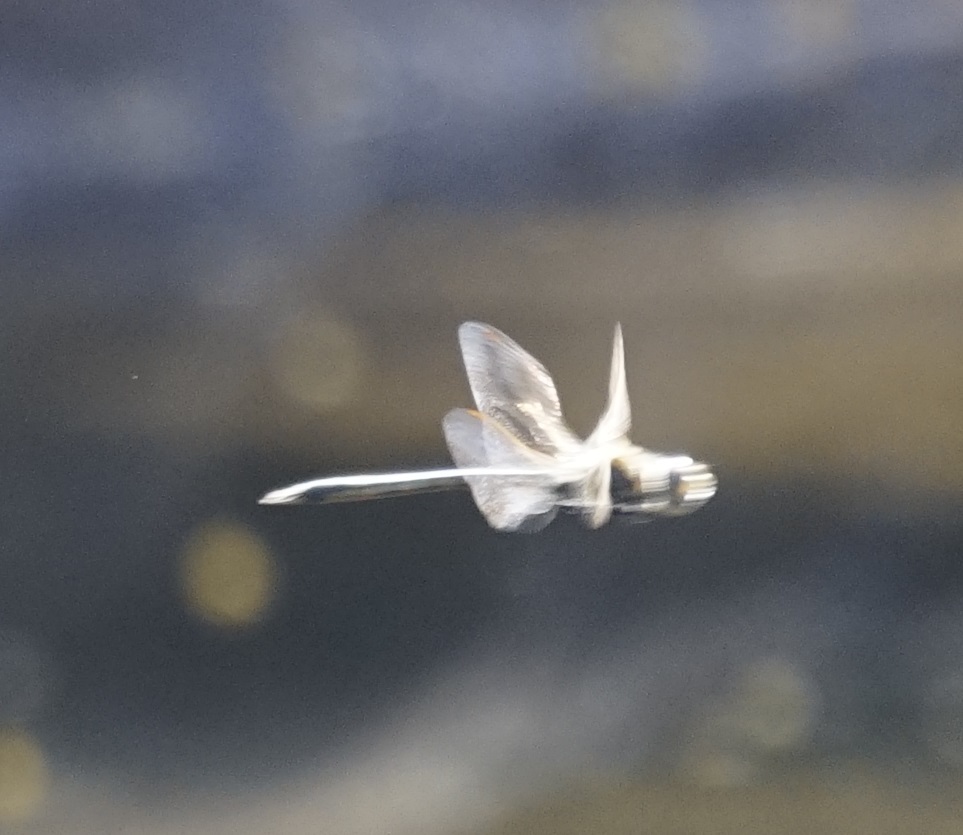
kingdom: Animalia
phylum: Arthropoda
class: Insecta
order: Odonata
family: Corduliidae
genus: Hemicordulia
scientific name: Hemicordulia tau
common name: Tau emerald
